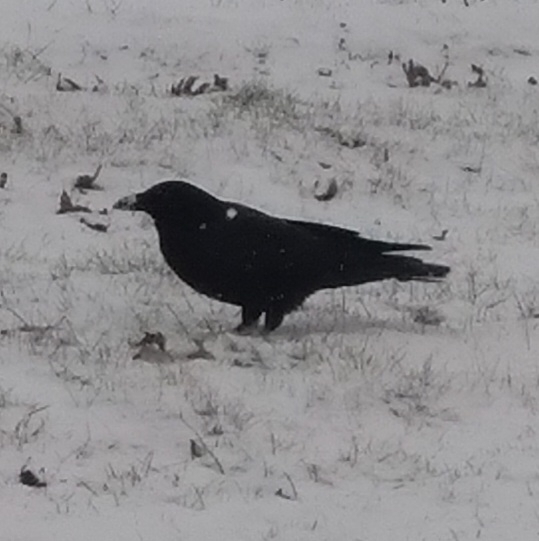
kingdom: Animalia
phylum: Chordata
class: Aves
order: Passeriformes
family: Corvidae
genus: Corvus
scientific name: Corvus brachyrhynchos
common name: American crow
